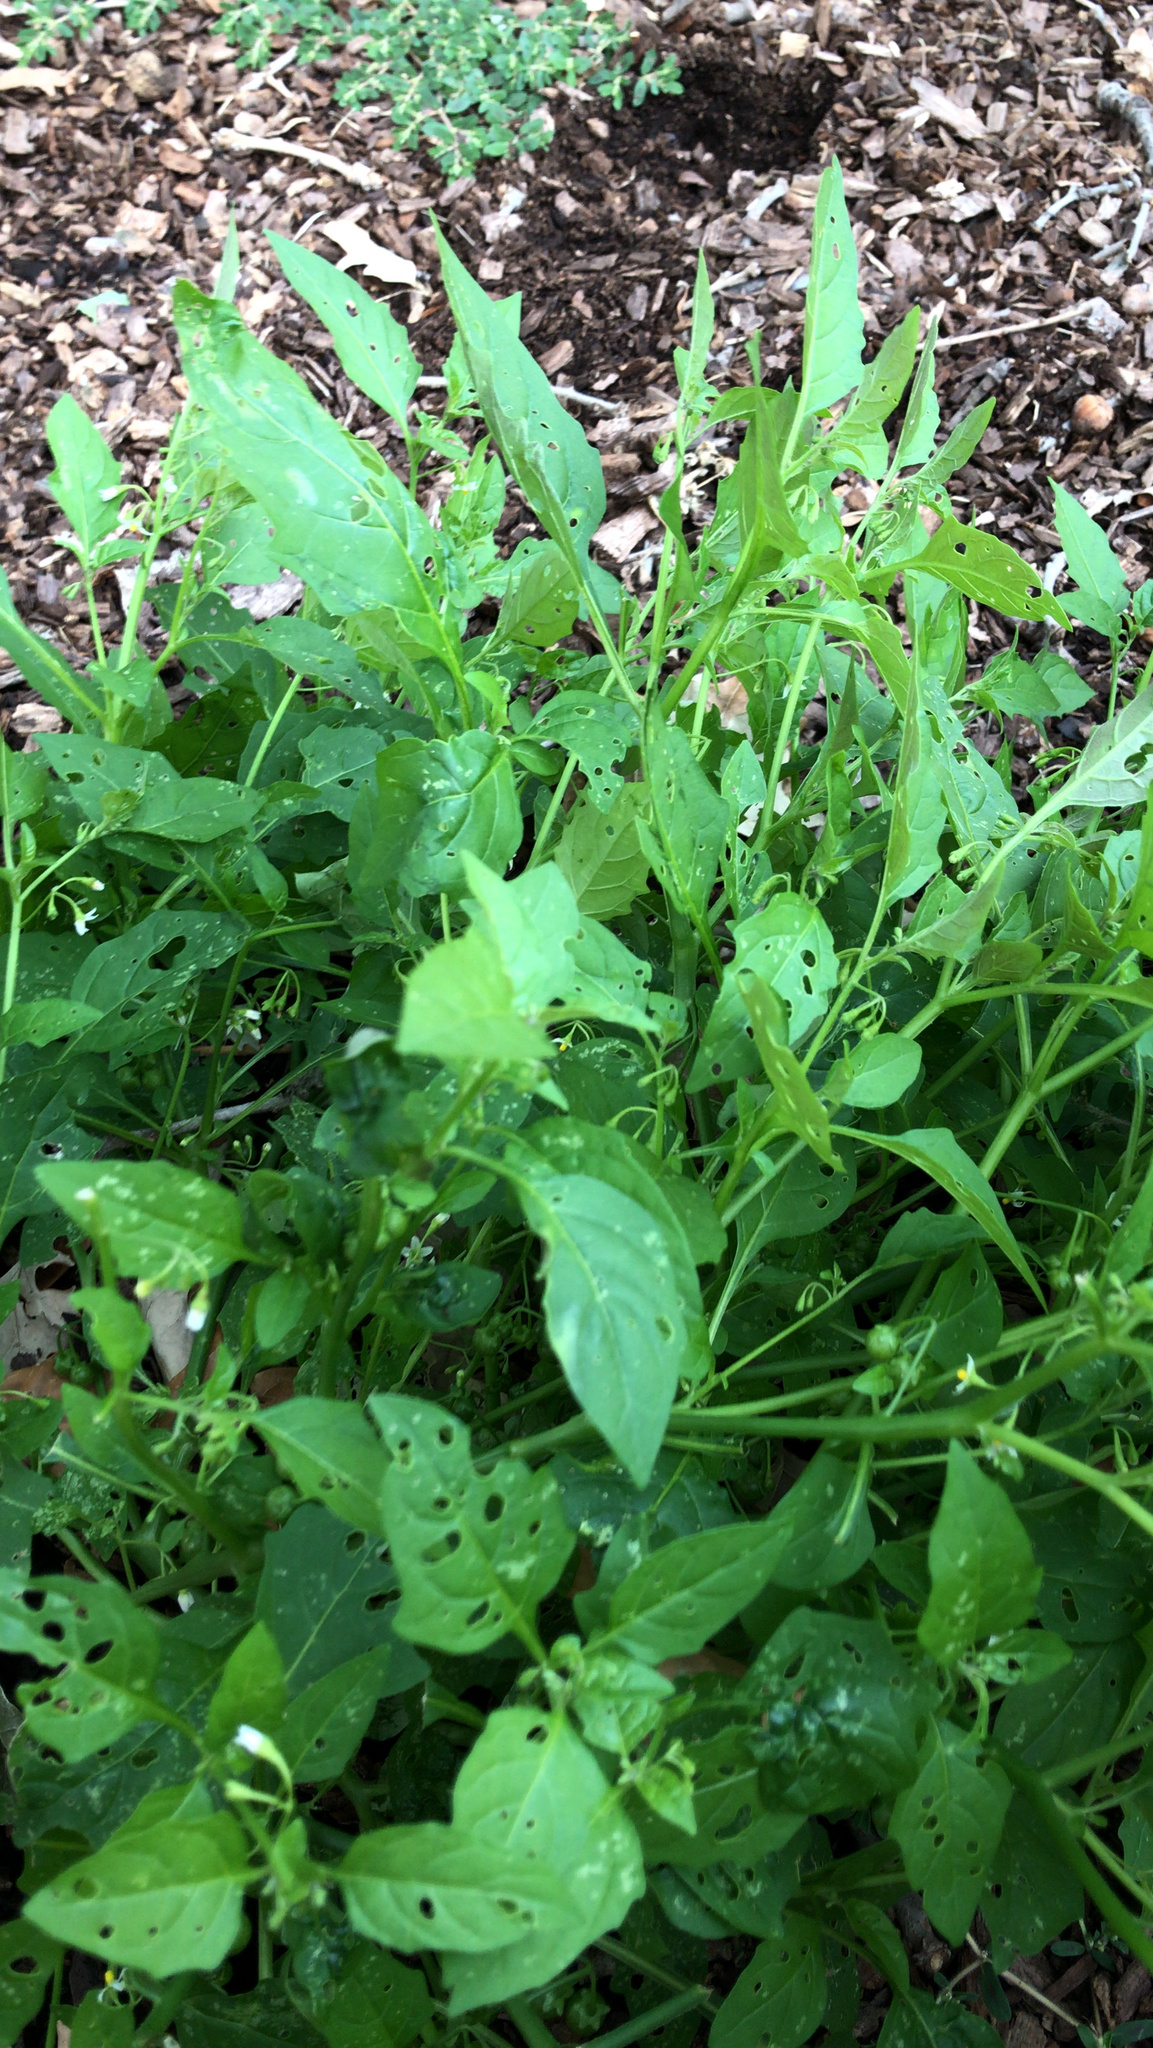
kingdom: Plantae
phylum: Tracheophyta
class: Magnoliopsida
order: Solanales
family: Solanaceae
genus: Solanum
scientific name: Solanum emulans
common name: Eastern black nightshade
